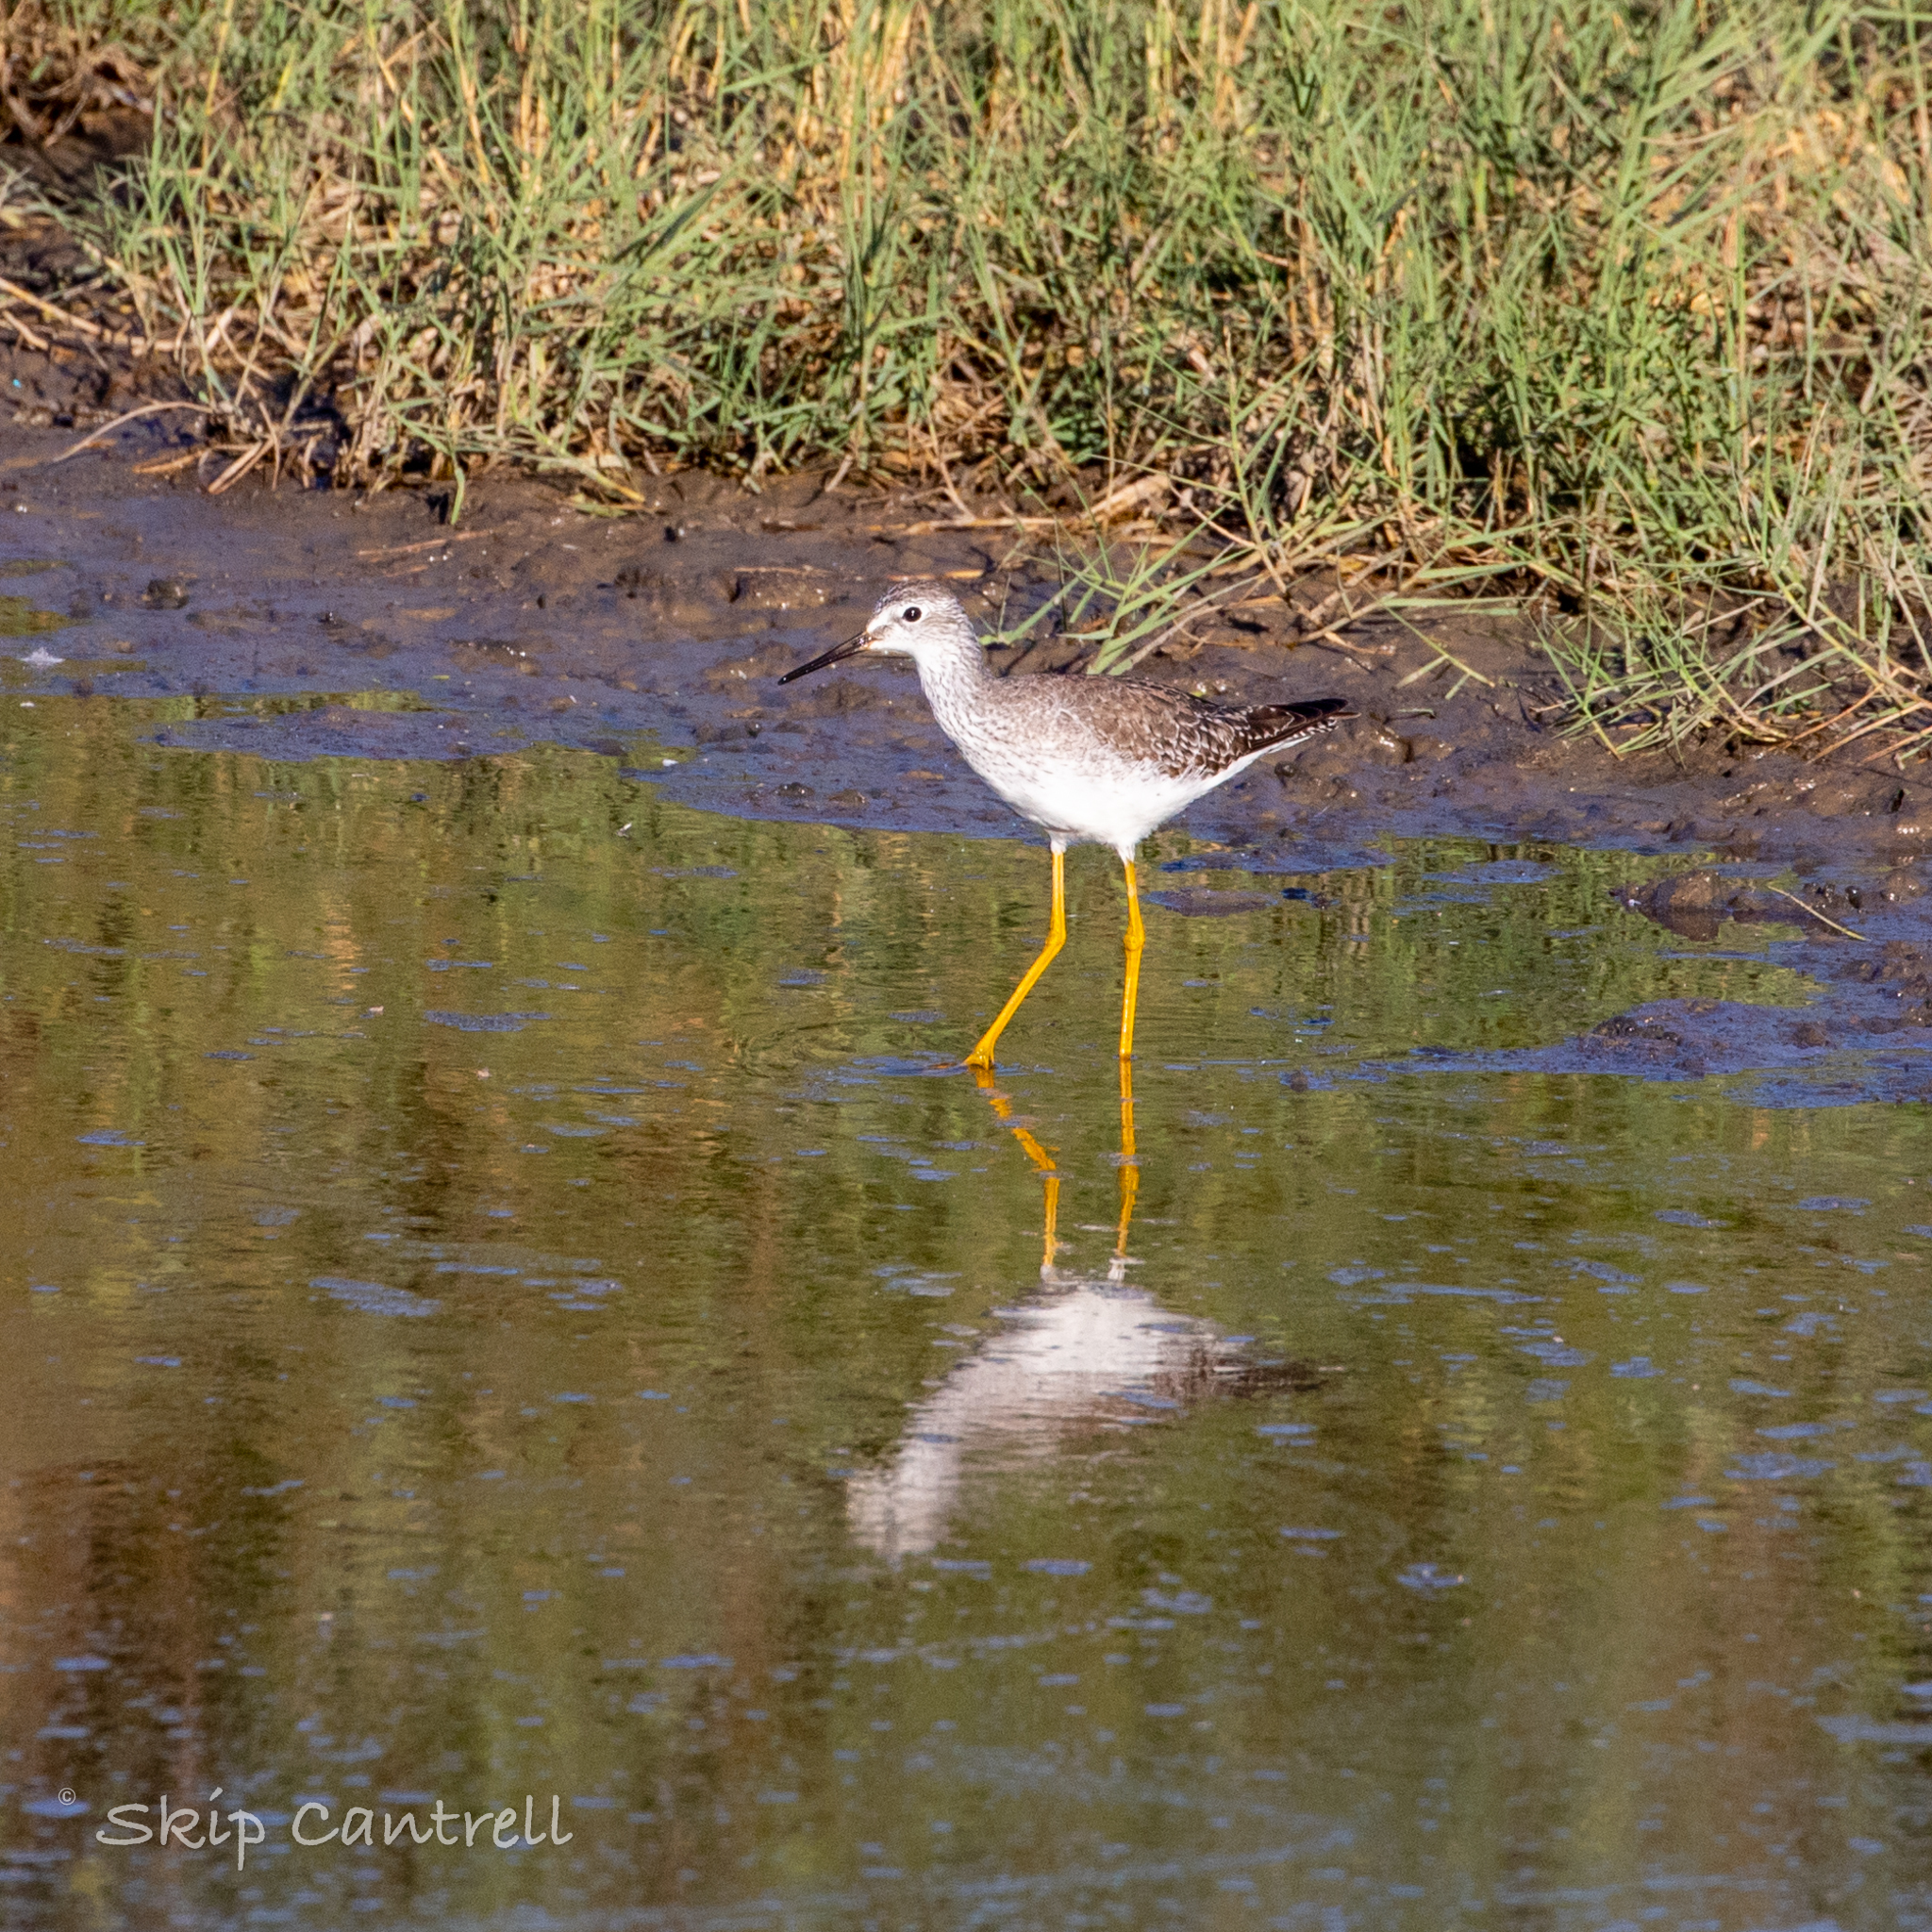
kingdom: Animalia
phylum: Chordata
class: Aves
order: Charadriiformes
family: Scolopacidae
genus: Tringa
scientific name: Tringa flavipes
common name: Lesser yellowlegs
